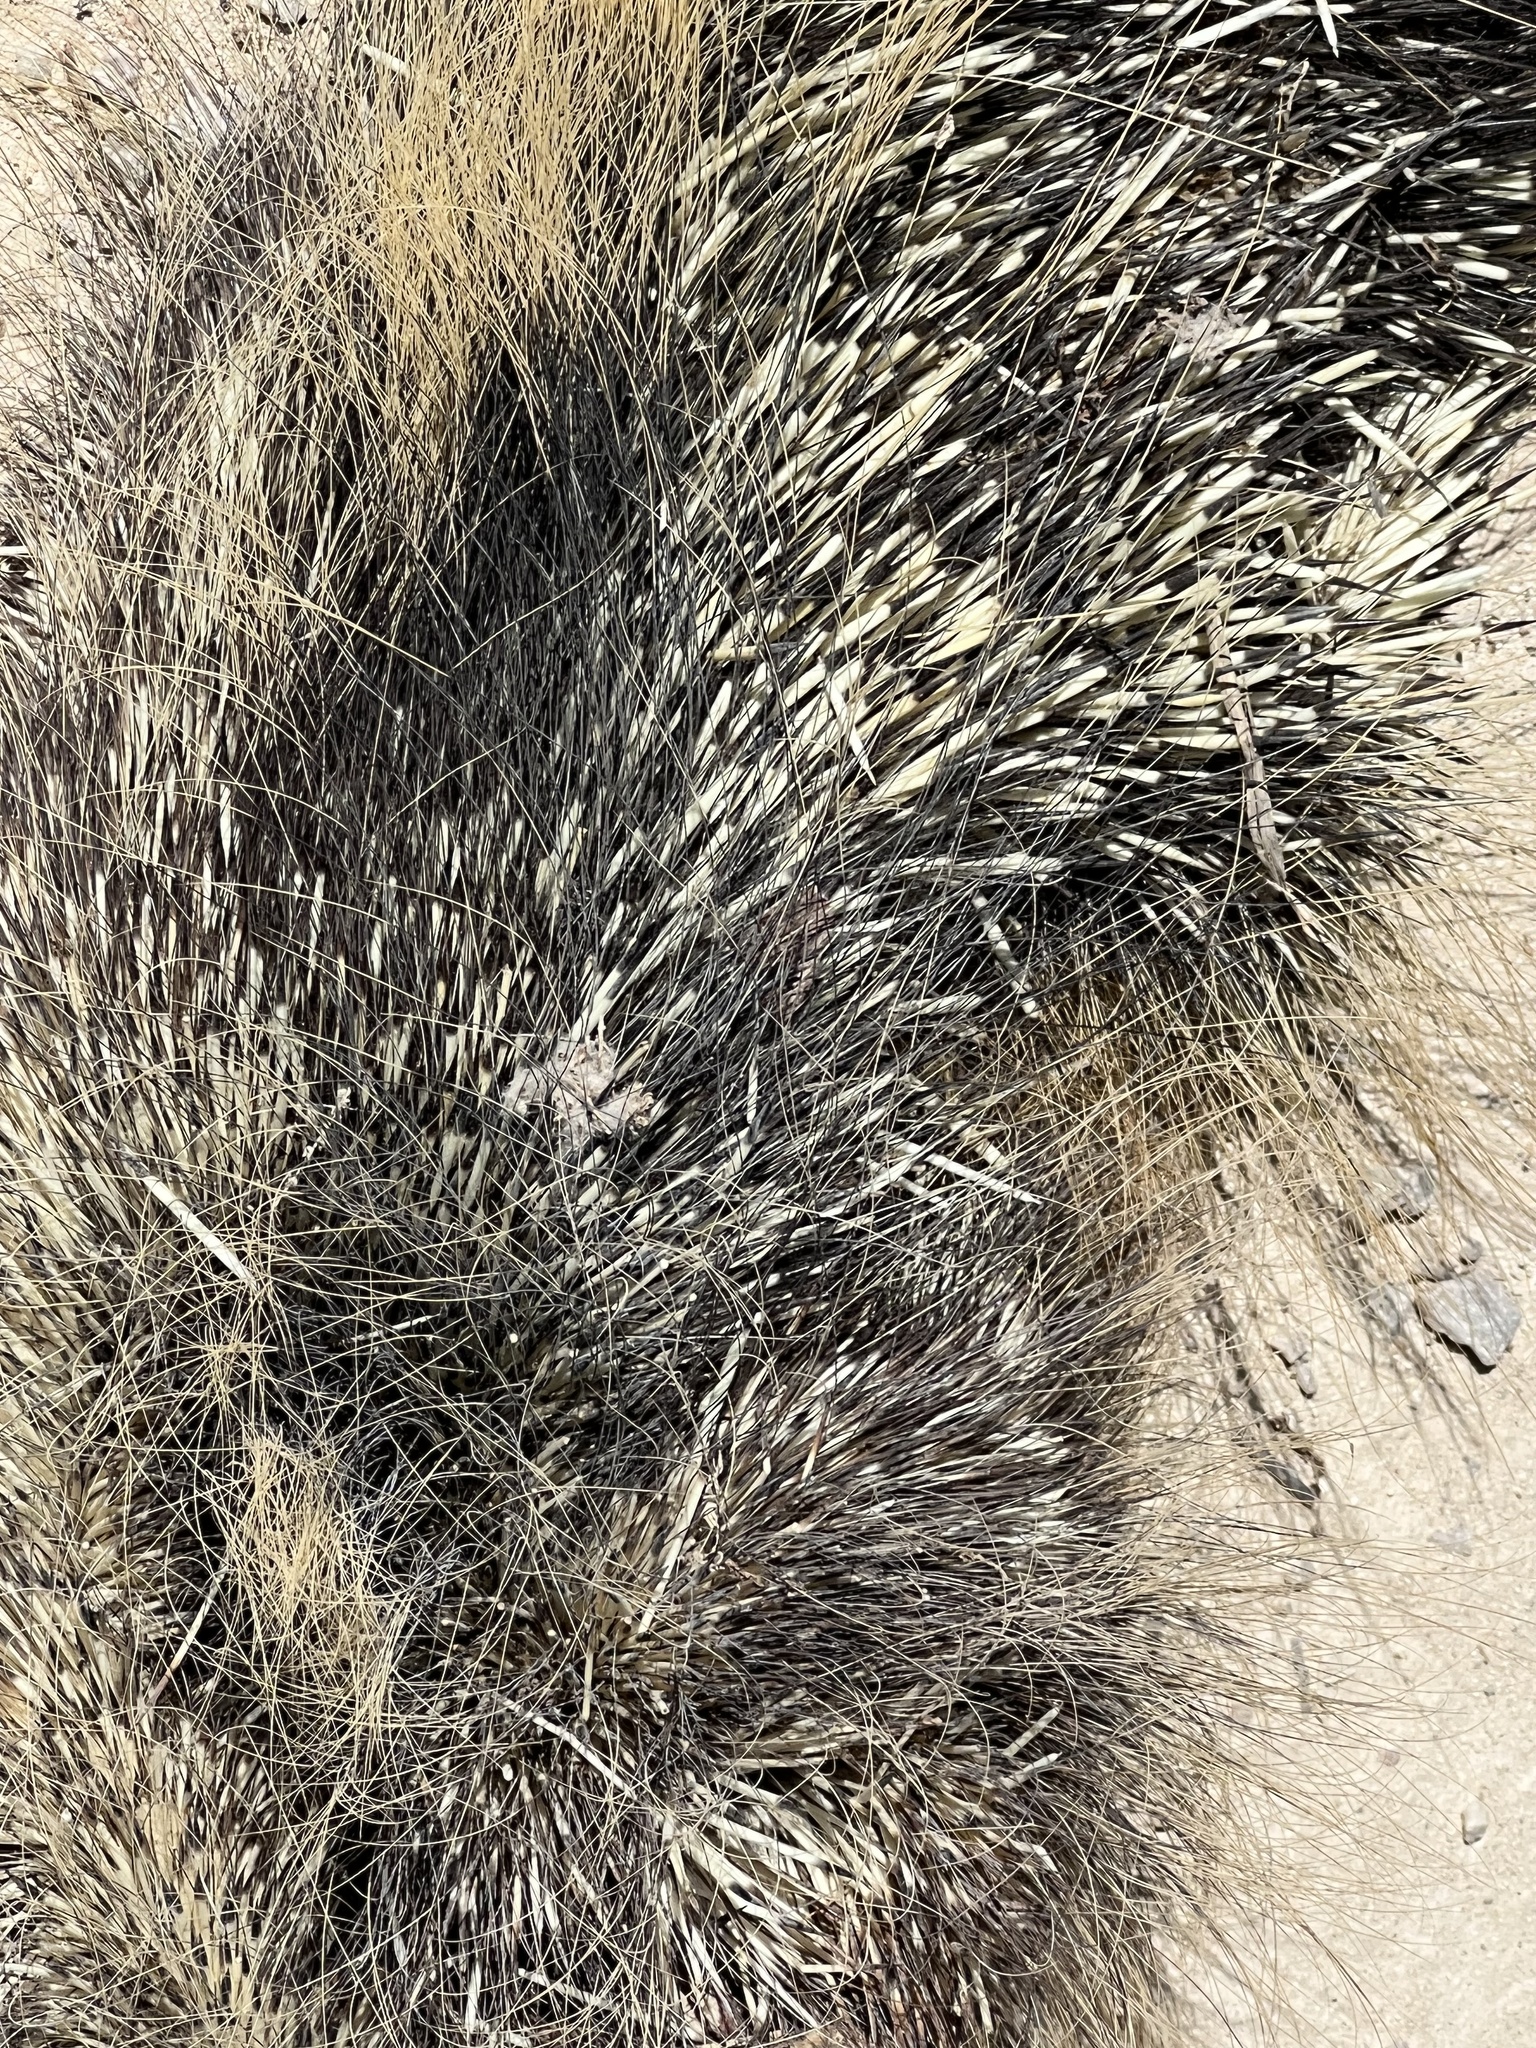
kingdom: Animalia
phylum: Chordata
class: Mammalia
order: Rodentia
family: Erethizontidae
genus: Erethizon
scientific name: Erethizon dorsatus
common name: North american porcupine
